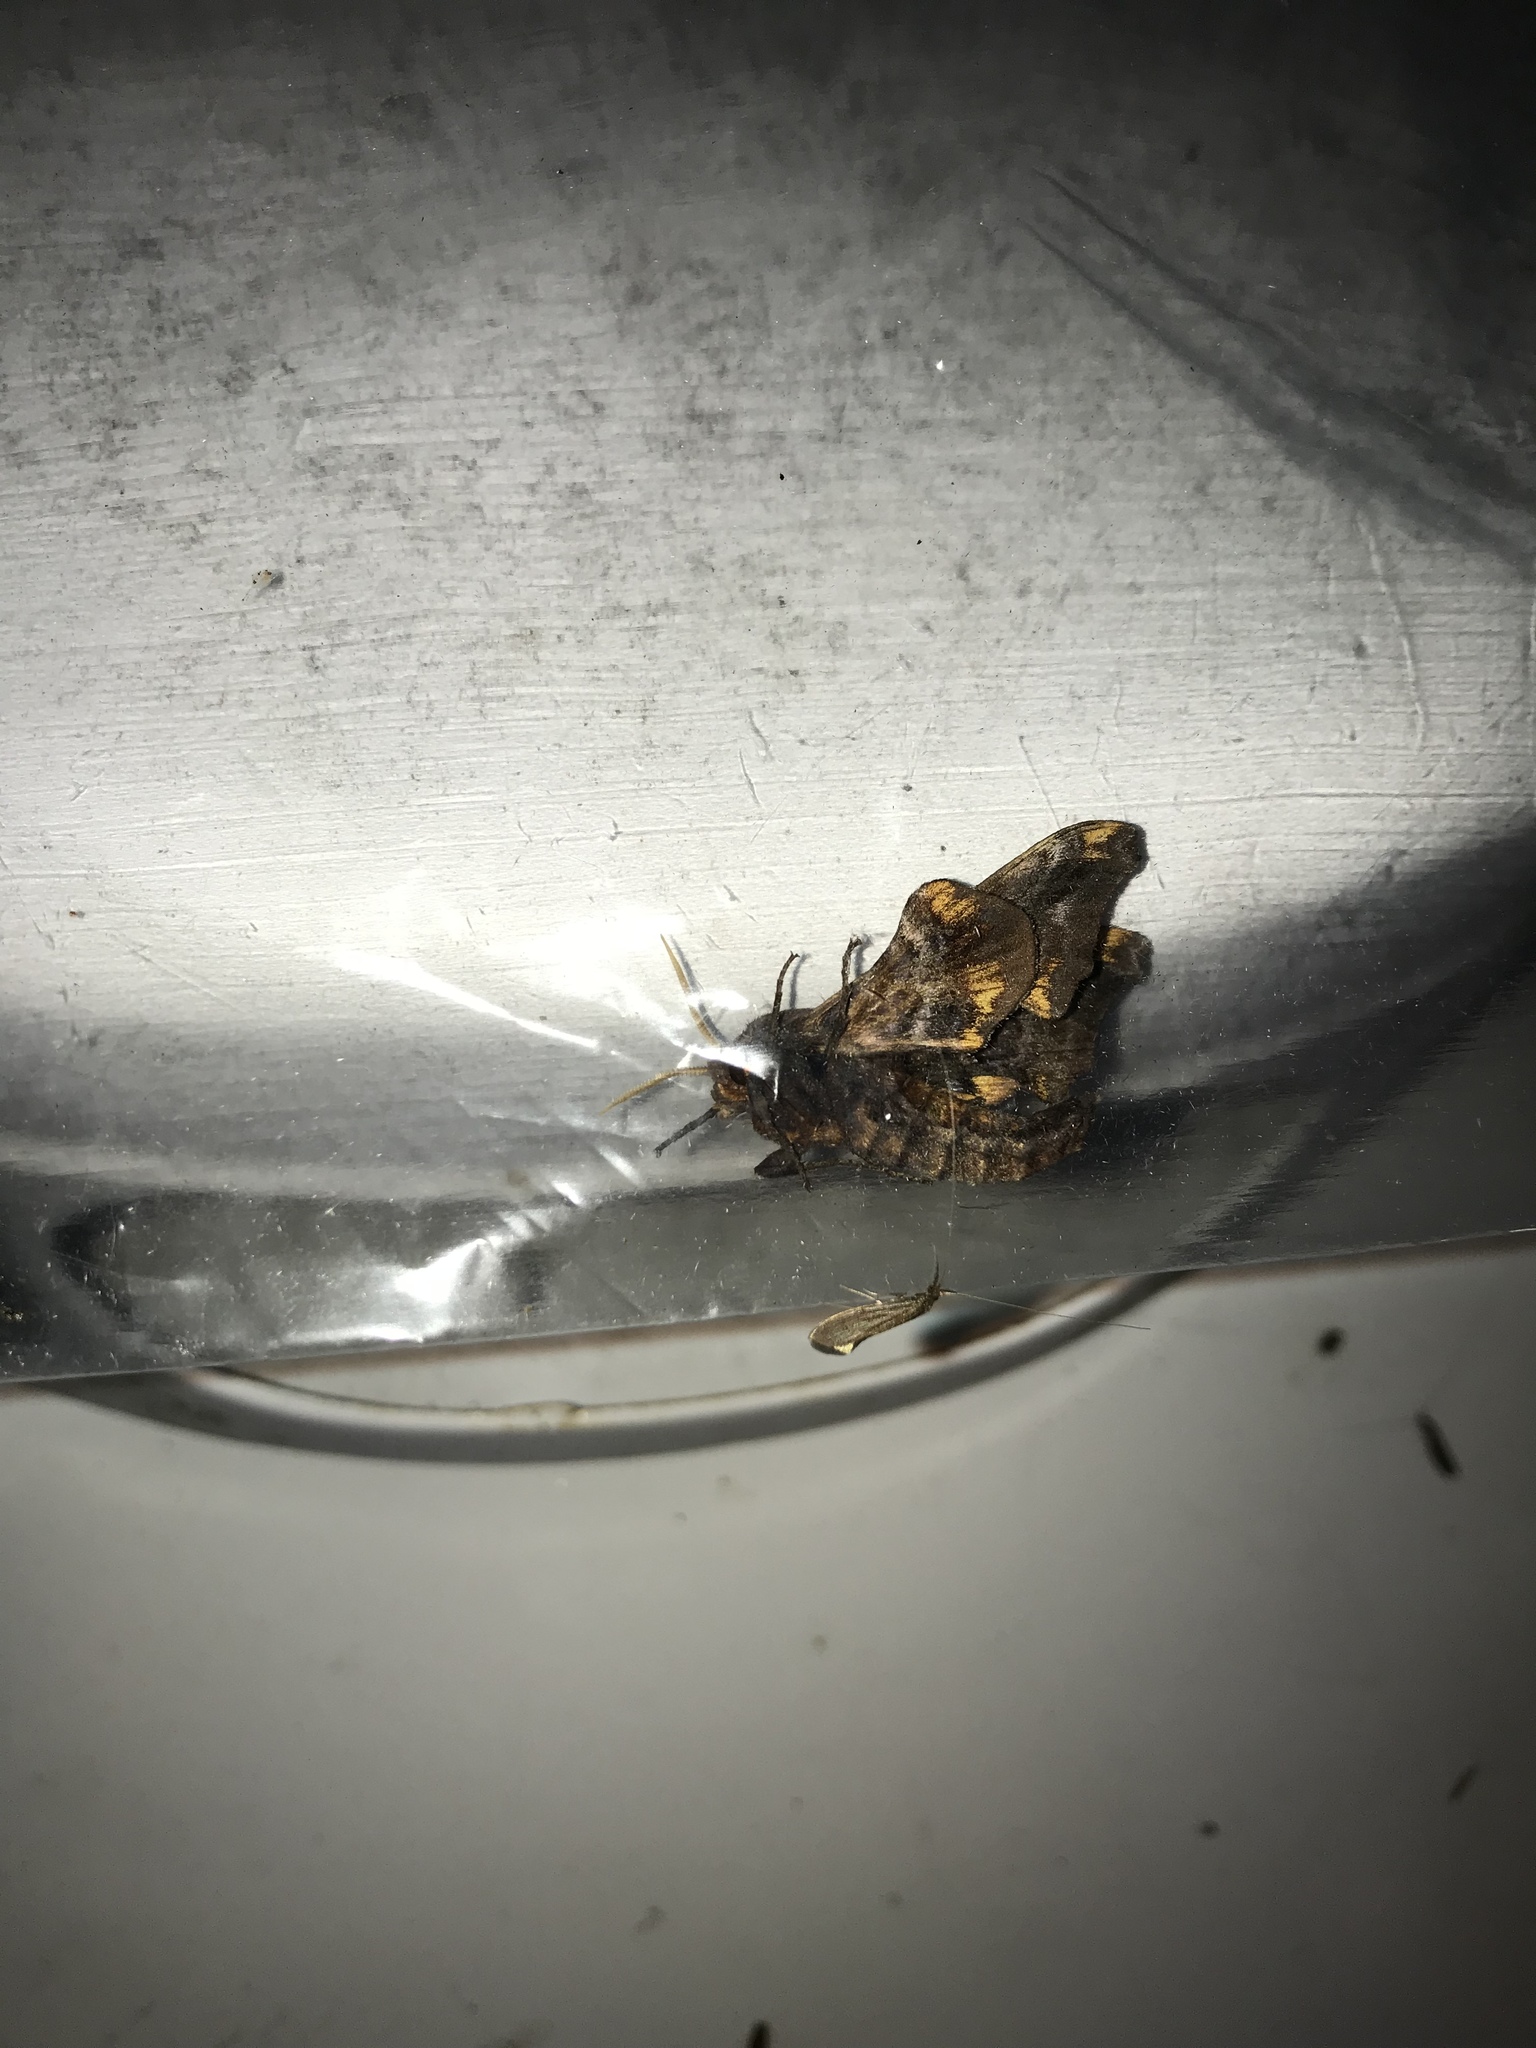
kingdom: Animalia
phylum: Arthropoda
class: Insecta
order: Lepidoptera
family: Sphingidae
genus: Paonias
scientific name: Paonias myops
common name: Small-eyed sphinx
